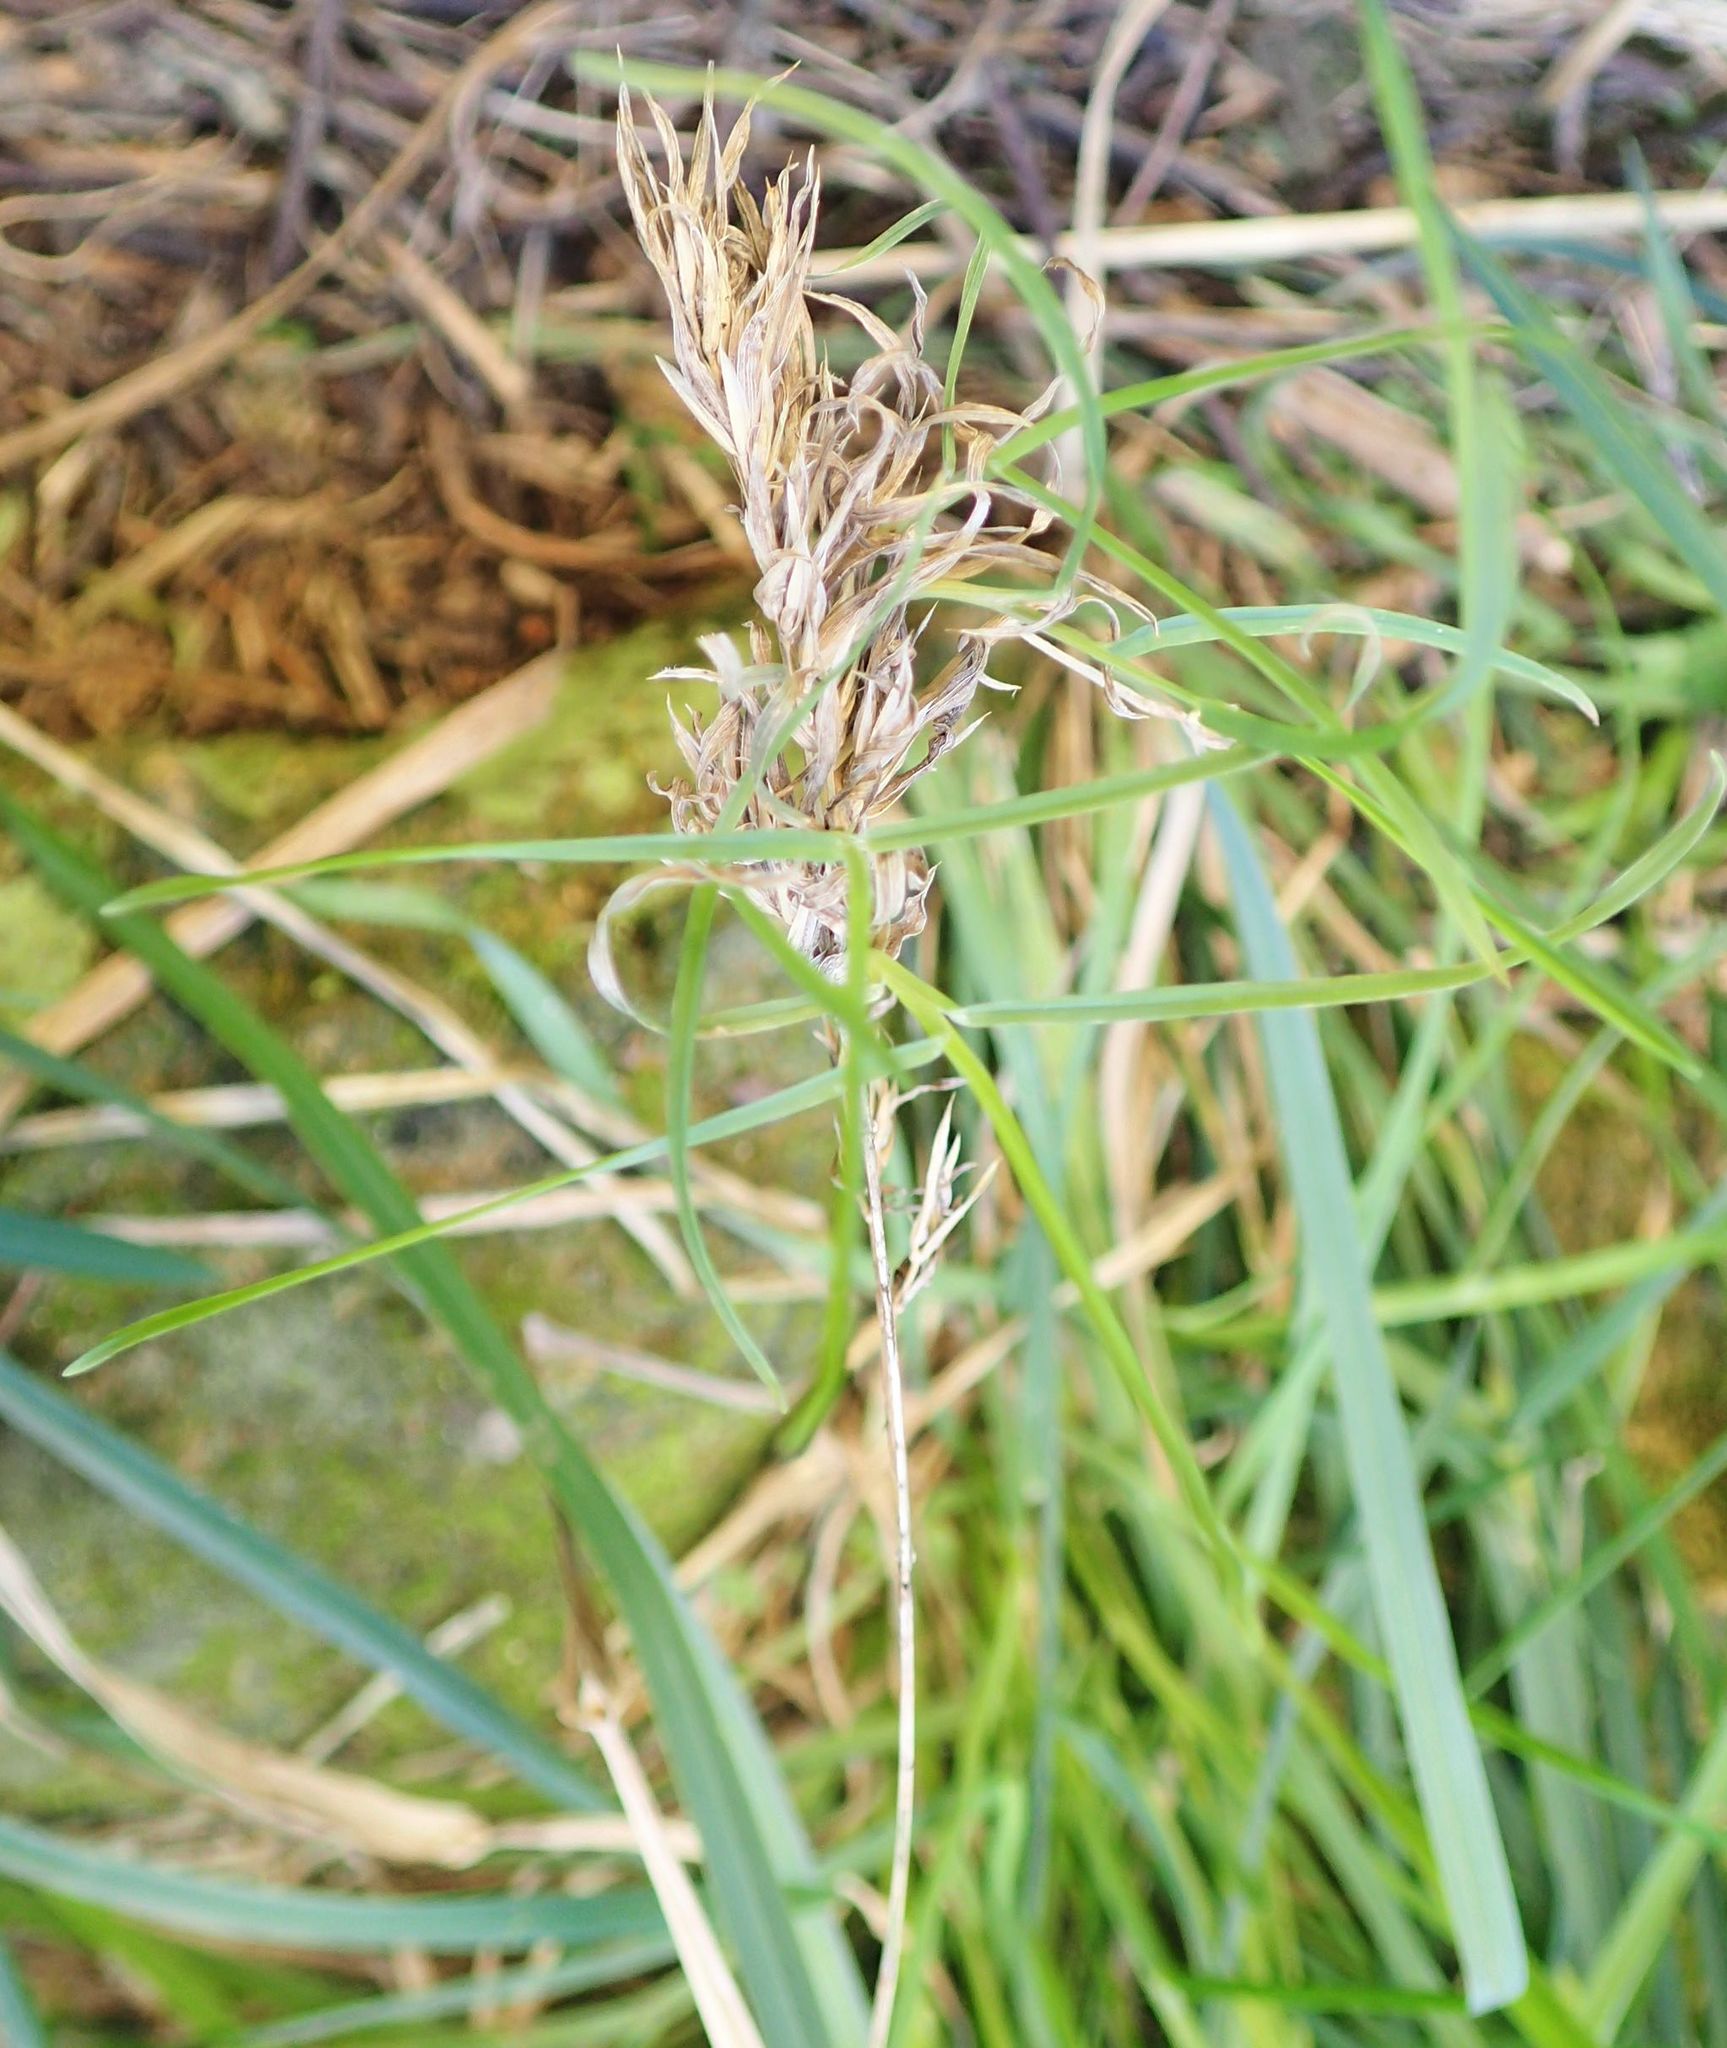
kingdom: Plantae
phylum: Tracheophyta
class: Liliopsida
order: Poales
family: Poaceae
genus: Dactylis
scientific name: Dactylis glomerata
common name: Orchardgrass
